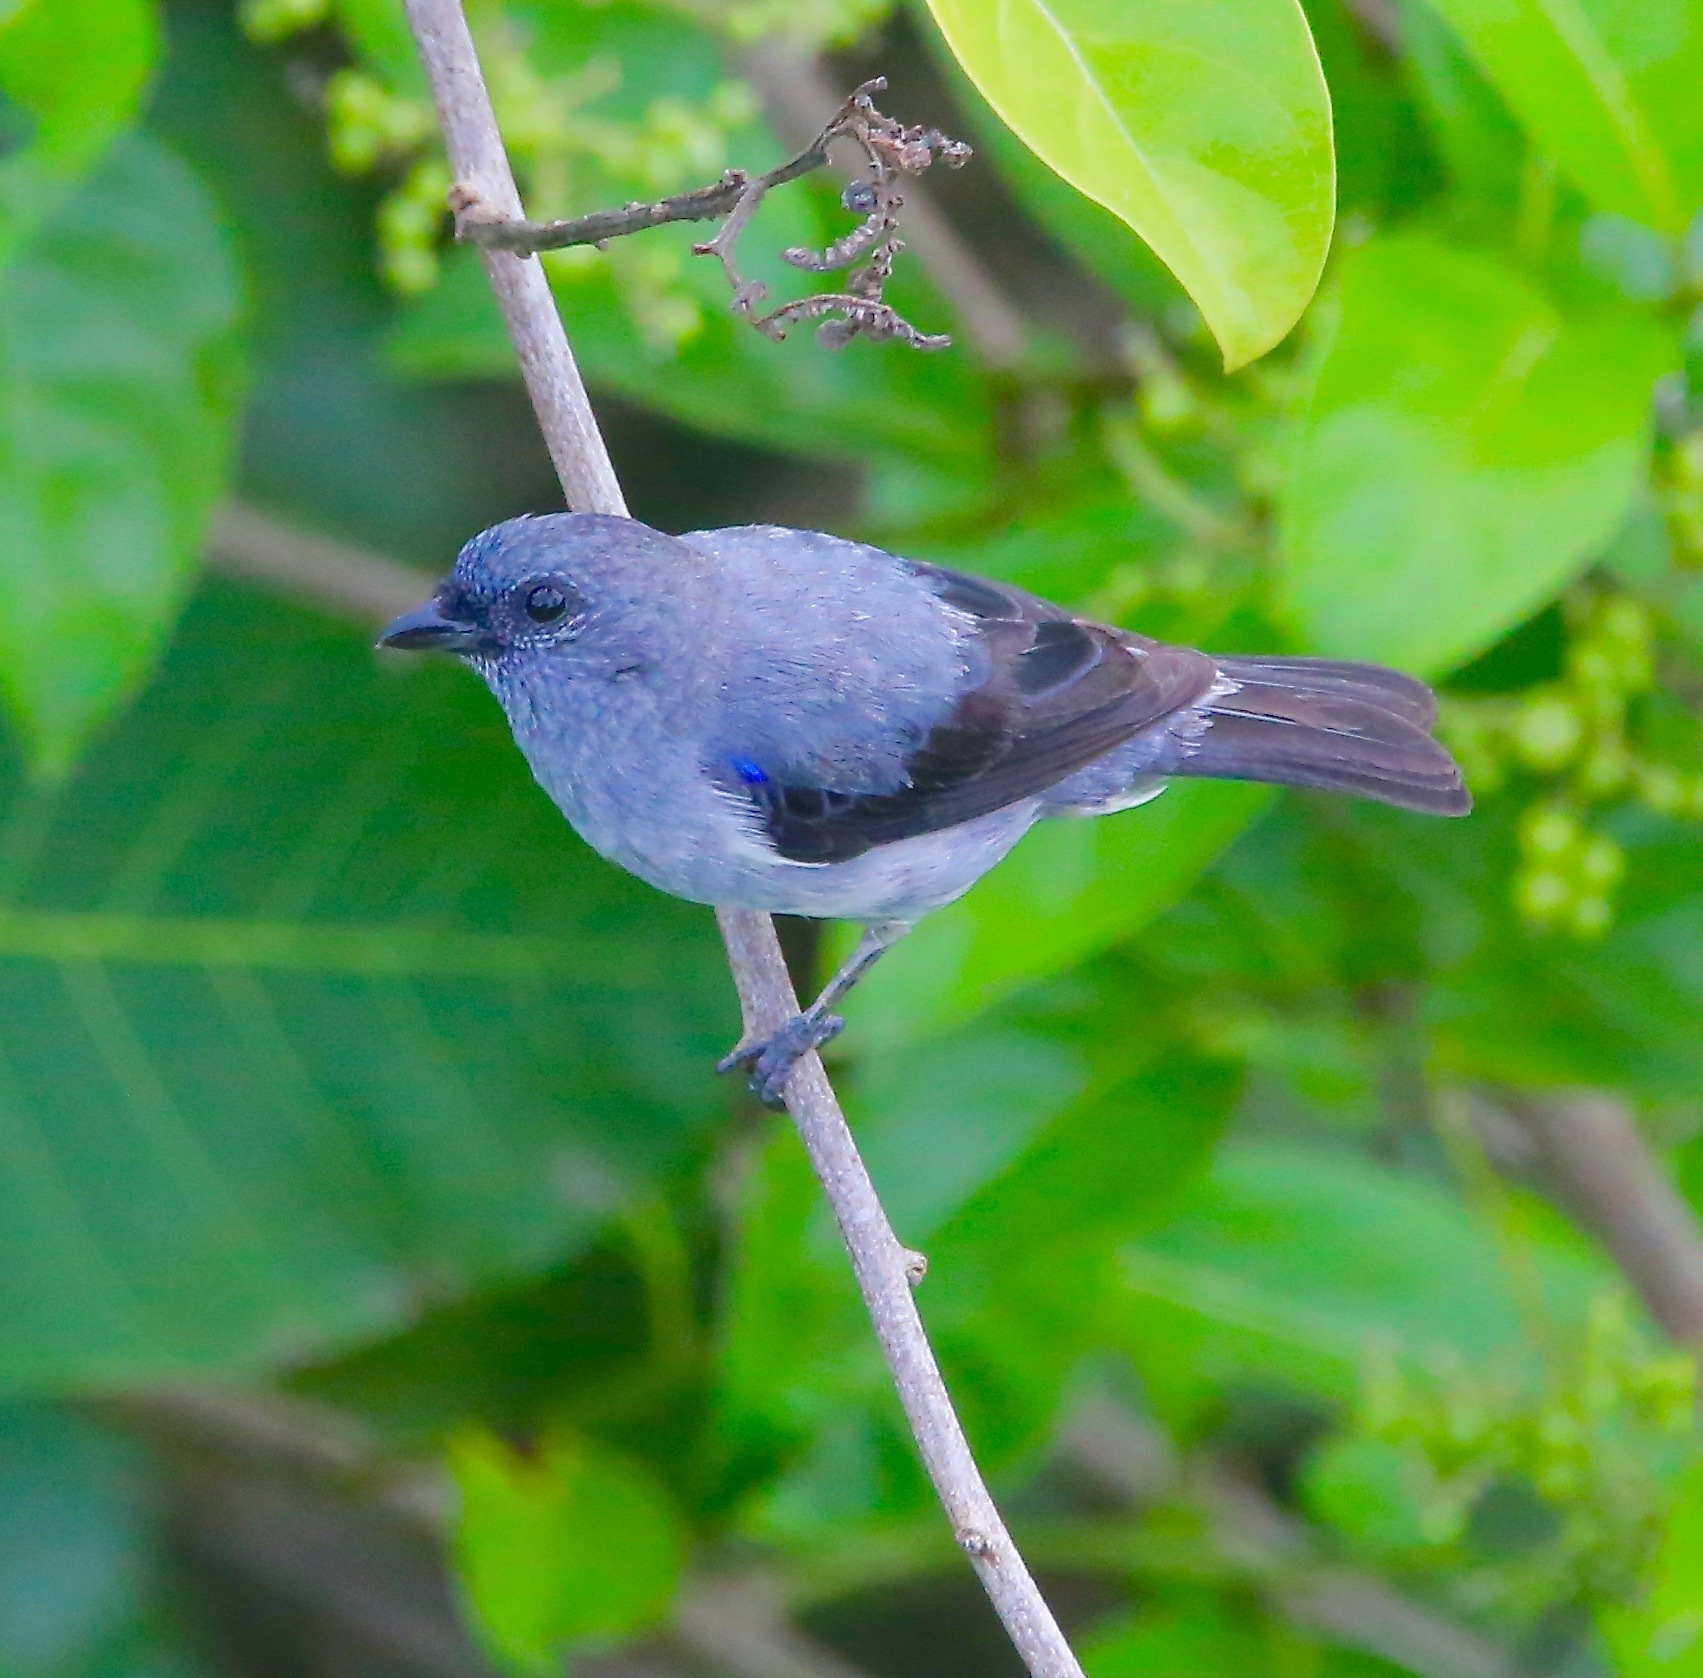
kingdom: Animalia
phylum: Chordata
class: Aves
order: Passeriformes
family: Thraupidae
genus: Tangara
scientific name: Tangara inornata
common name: Plain-colored tanager
